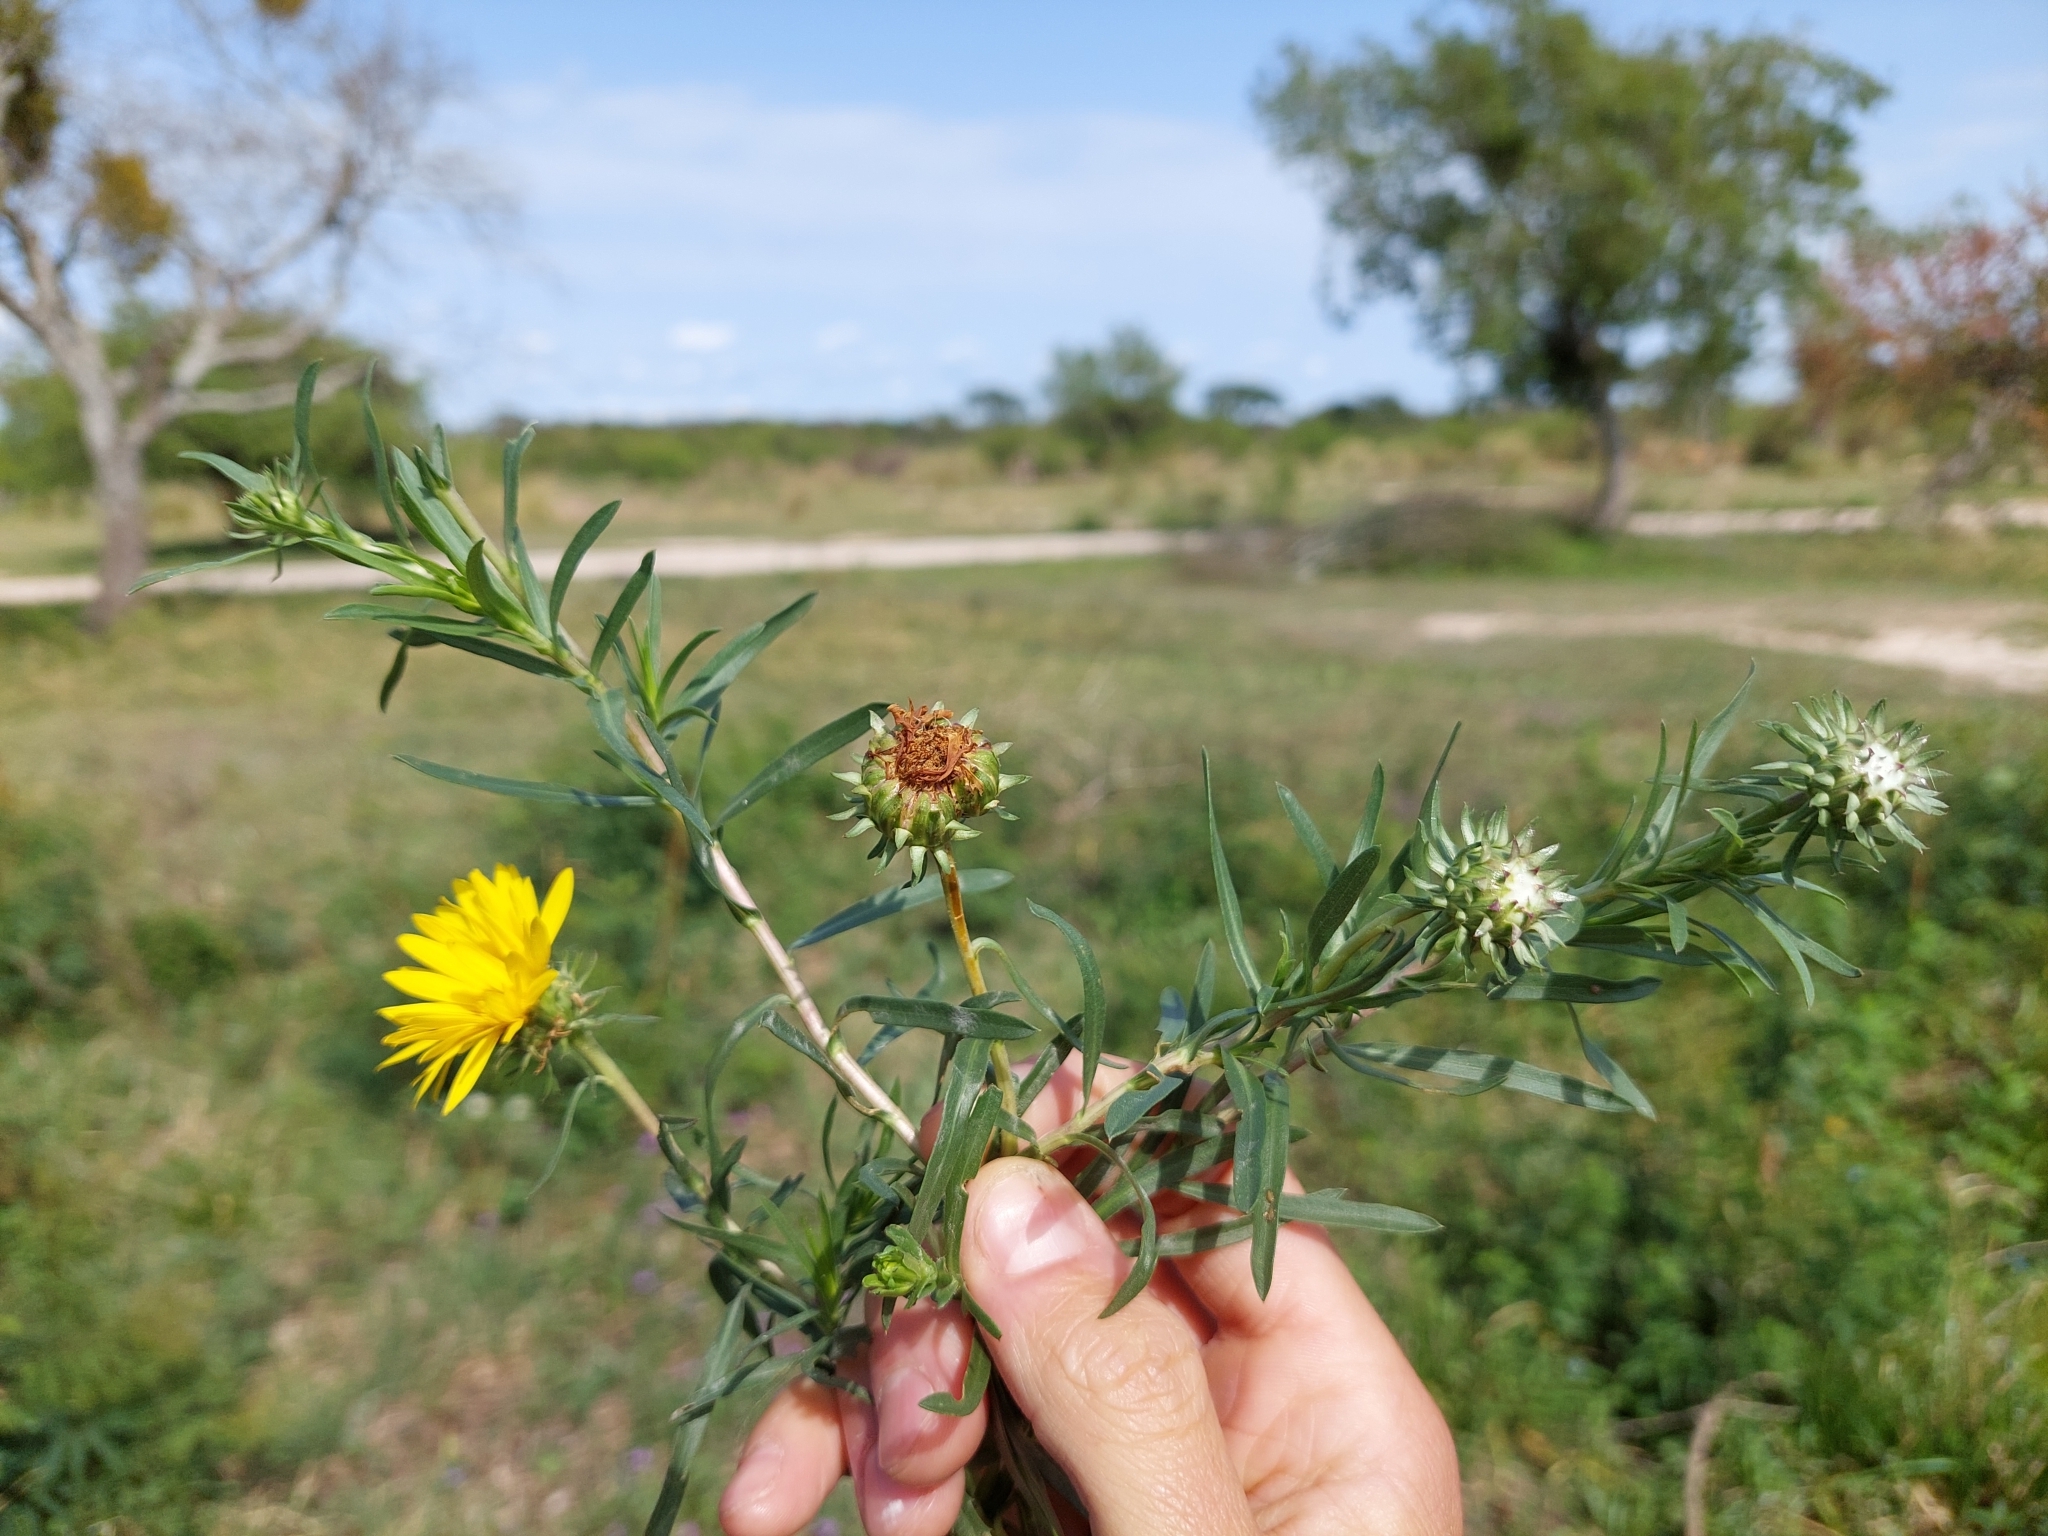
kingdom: Plantae
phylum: Tracheophyta
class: Magnoliopsida
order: Asterales
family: Asteraceae
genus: Grindelia
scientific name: Grindelia scorzonerifolia
